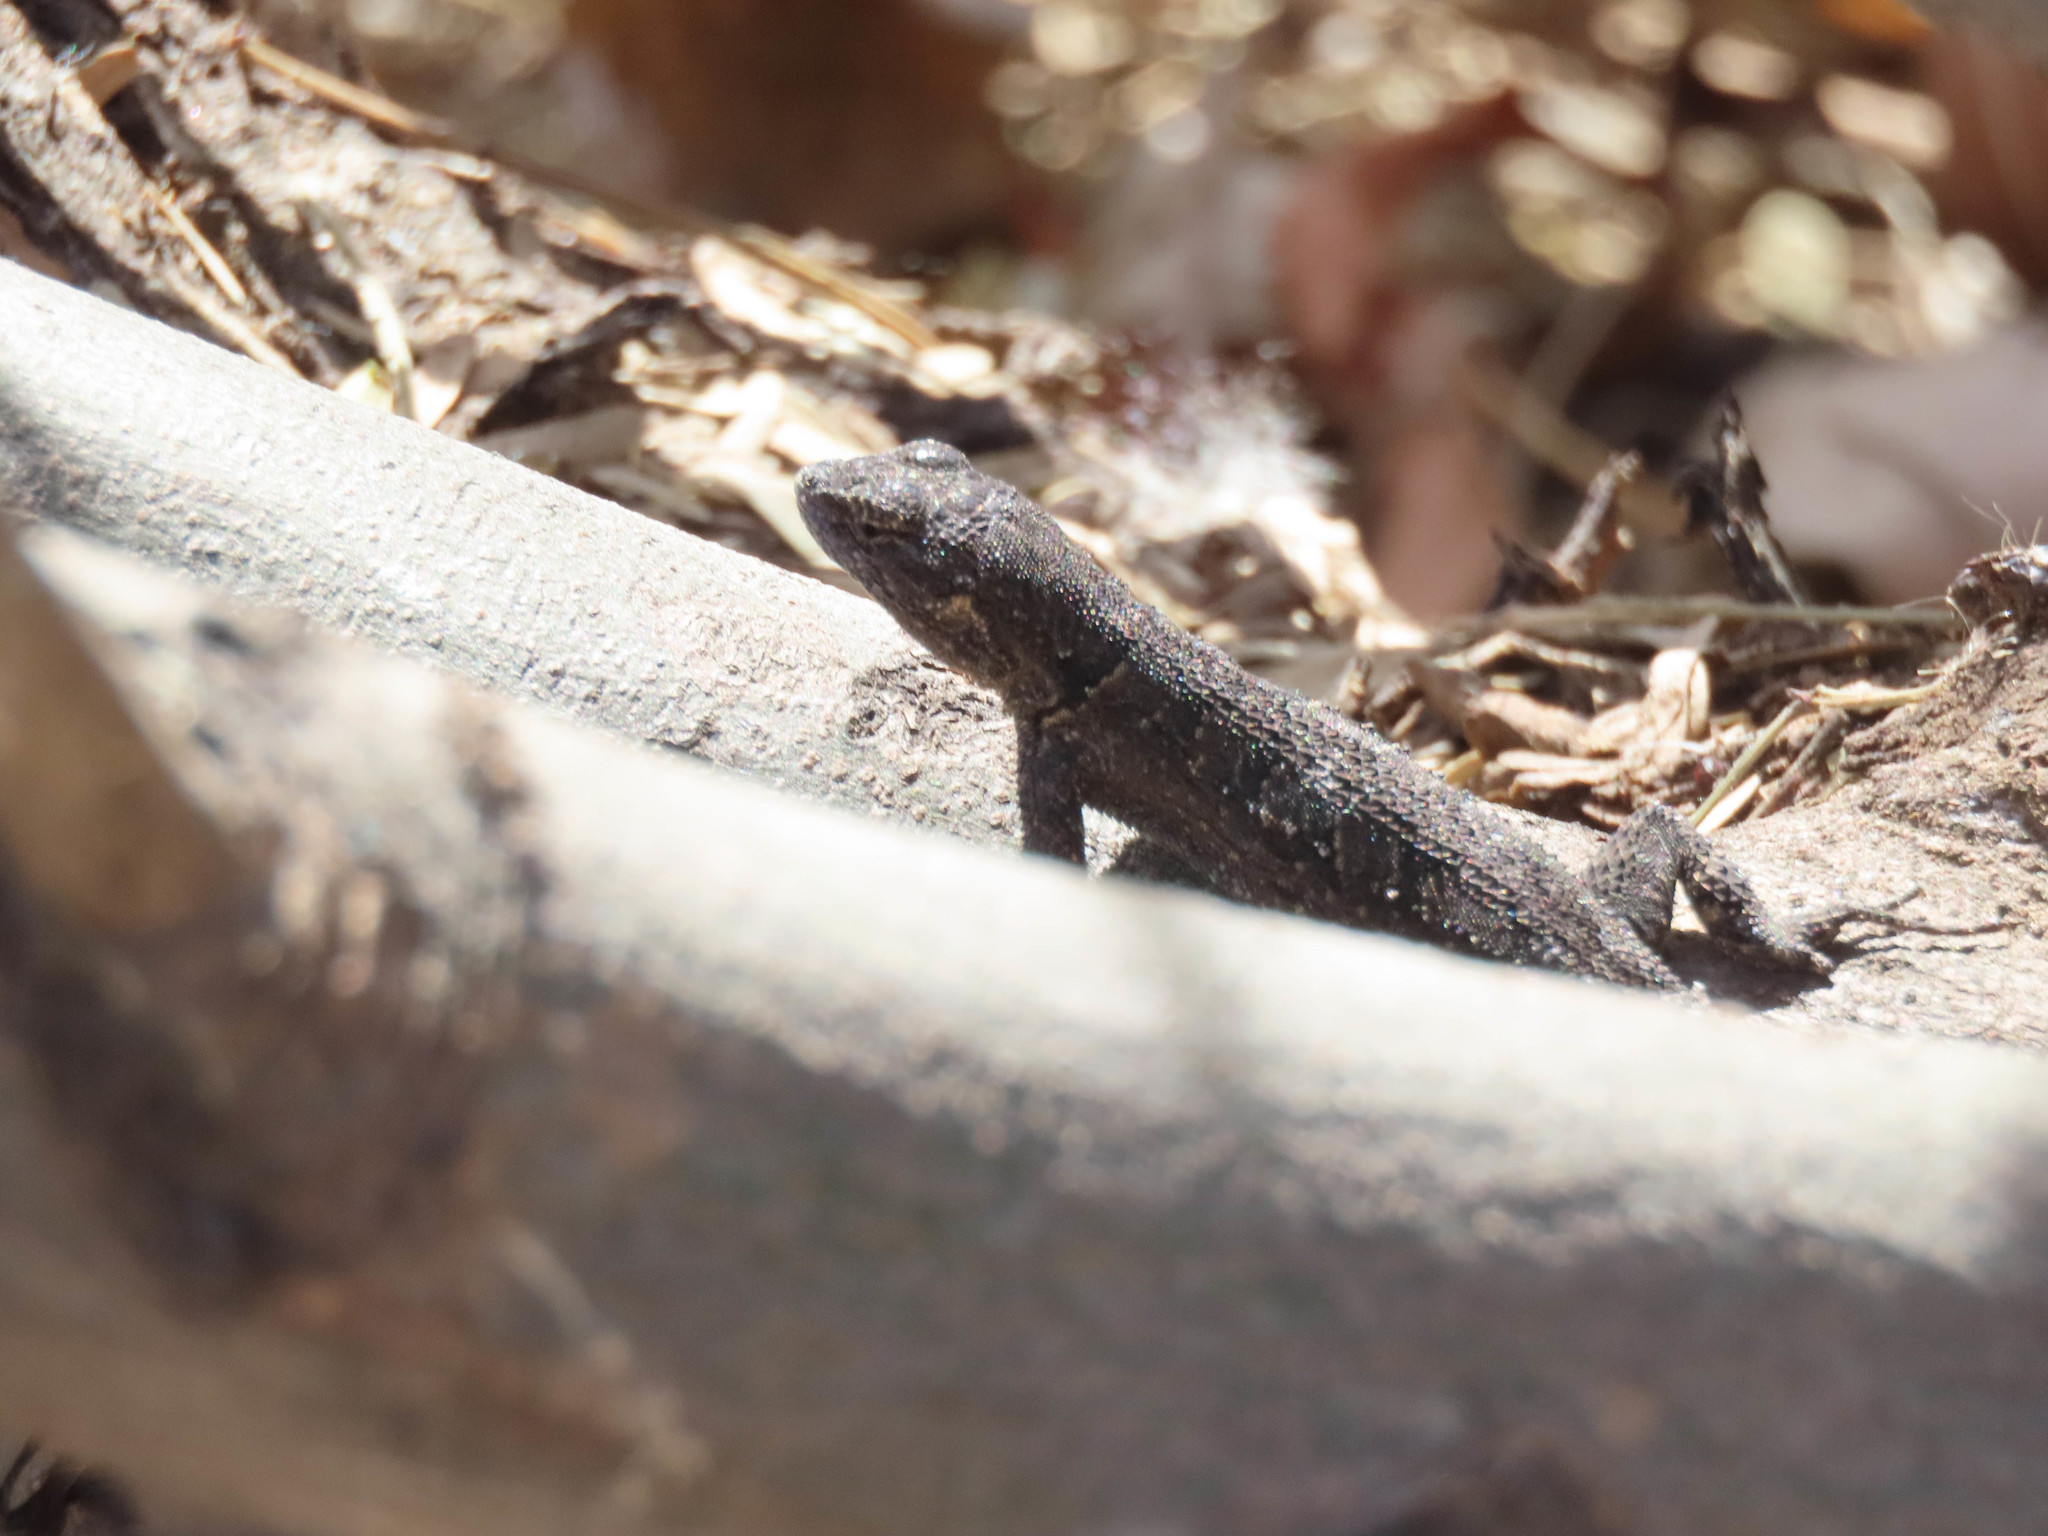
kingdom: Animalia
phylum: Chordata
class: Squamata
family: Phrynosomatidae
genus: Urosaurus
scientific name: Urosaurus ornatus
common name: Ornate tree lizard
